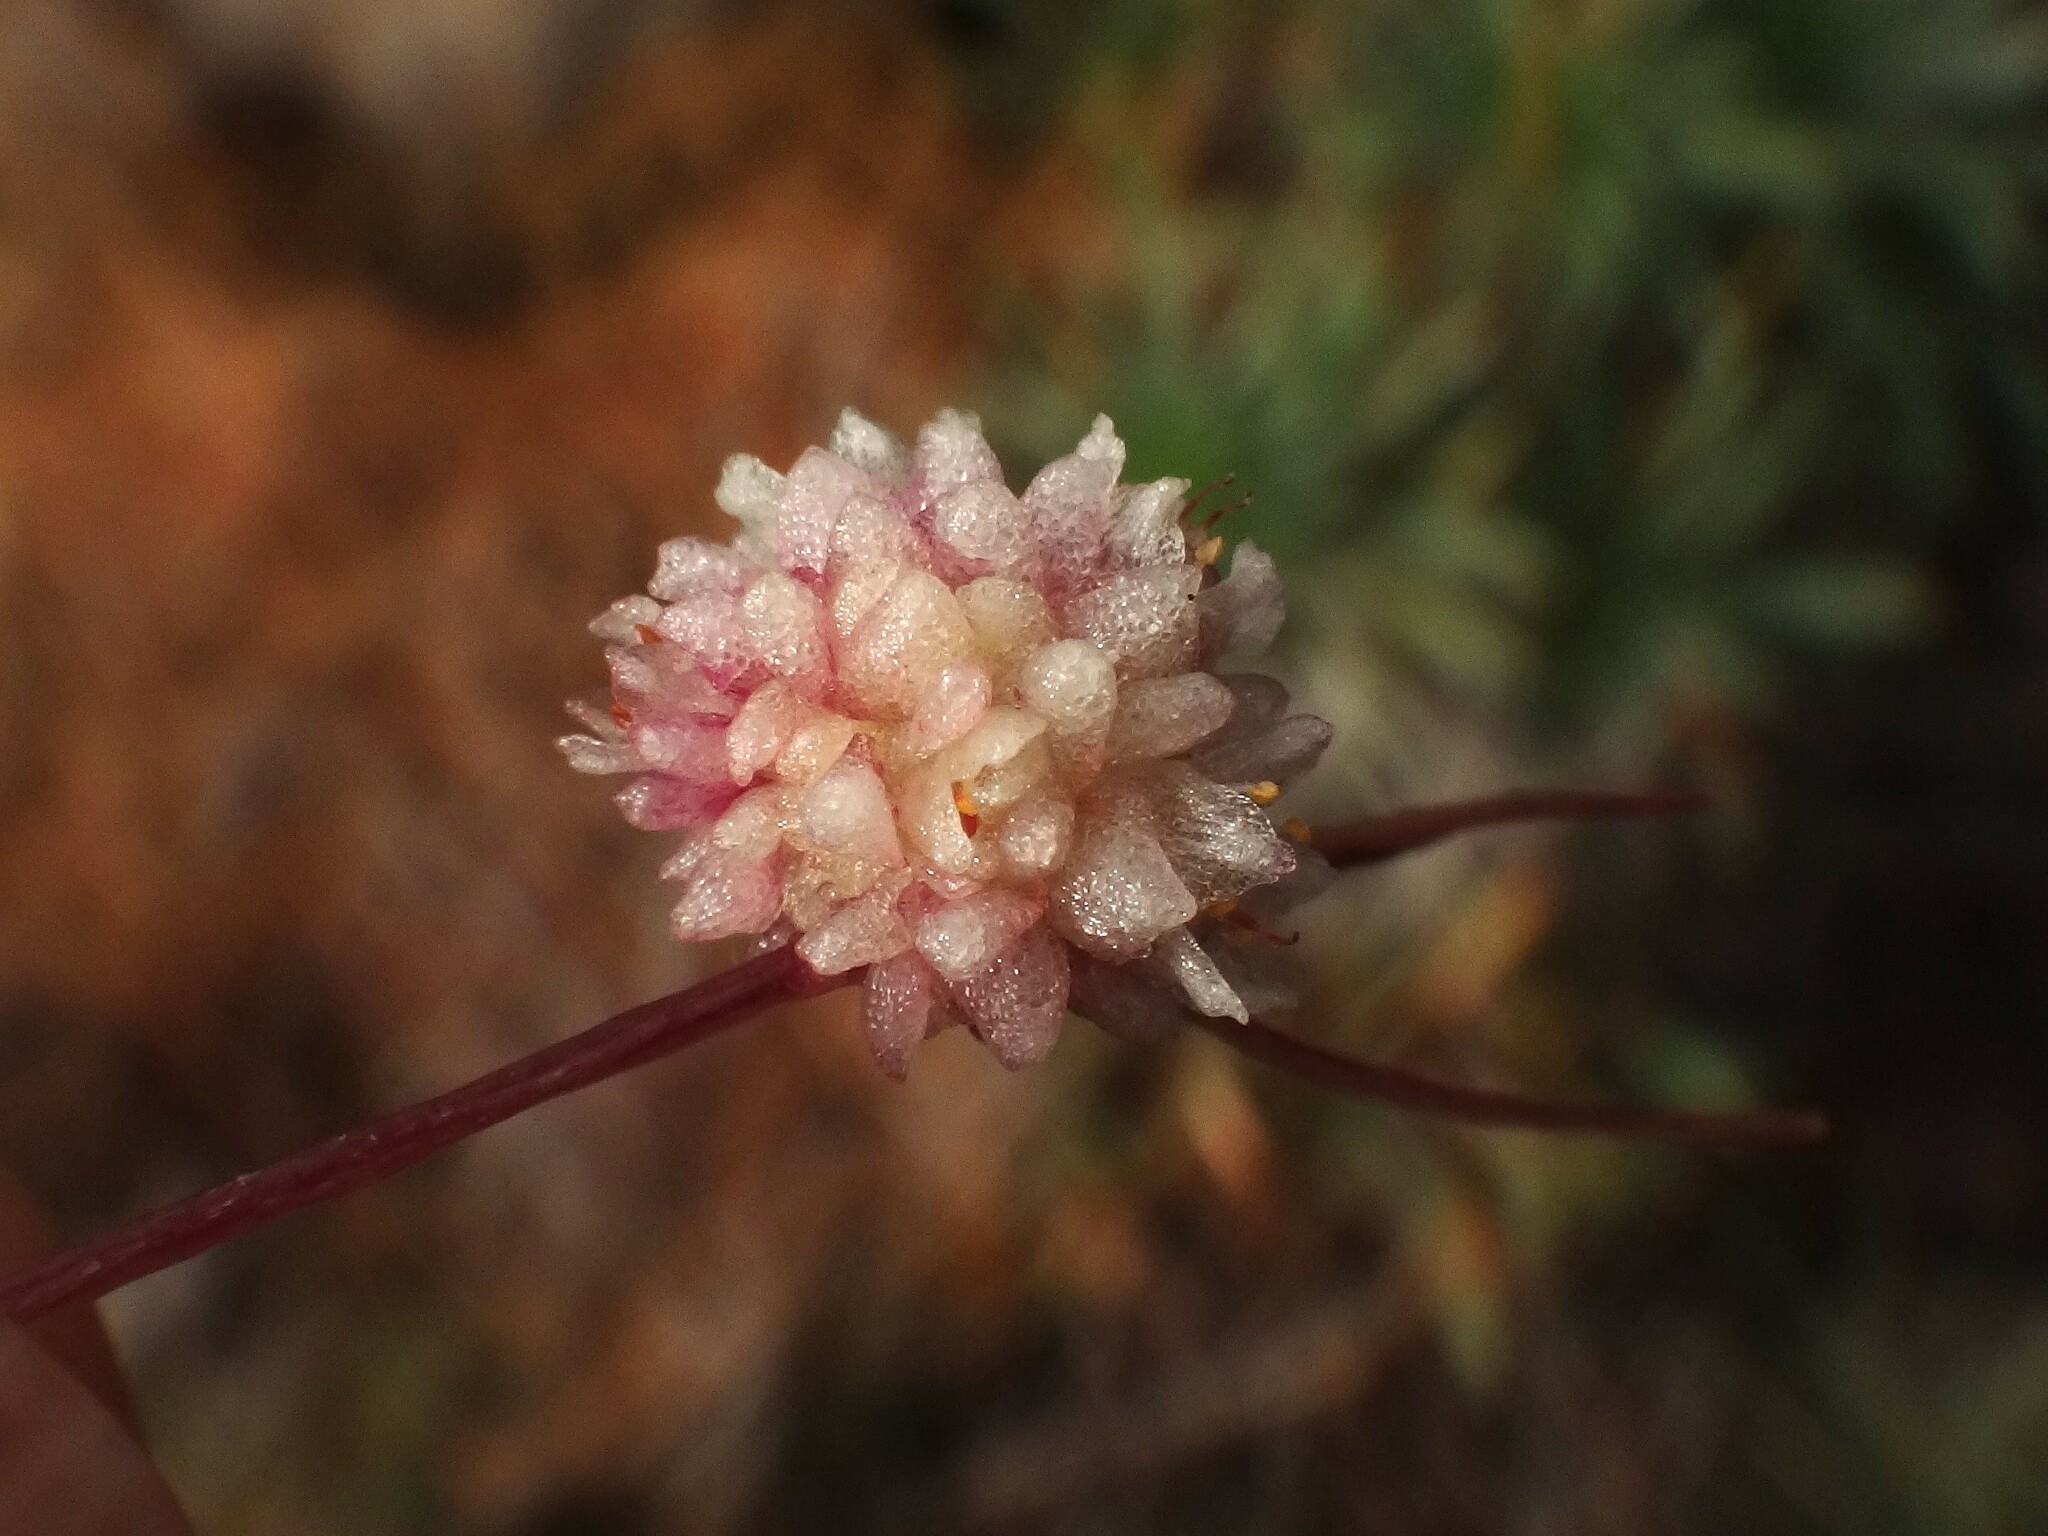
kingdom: Plantae
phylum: Tracheophyta
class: Magnoliopsida
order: Solanales
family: Convolvulaceae
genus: Cuscuta
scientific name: Cuscuta planiflora
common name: Small-seed alfalfa dodder
